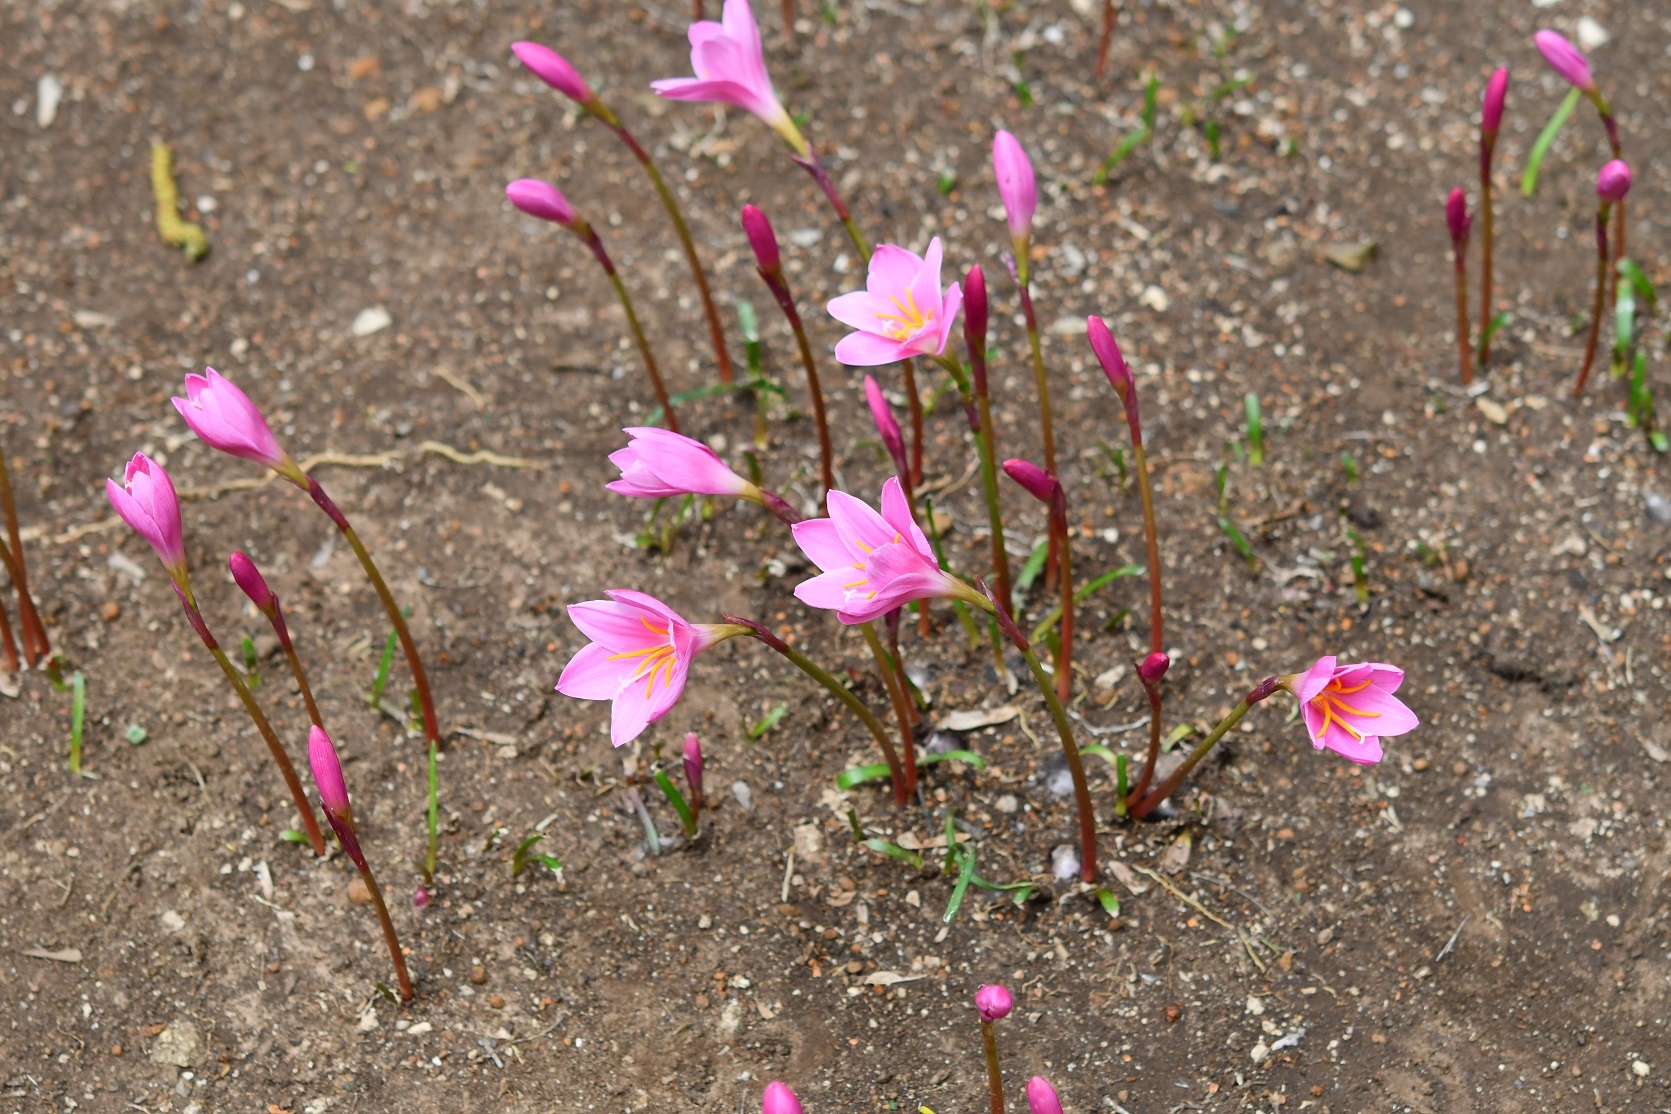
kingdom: Plantae
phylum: Tracheophyta
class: Liliopsida
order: Asparagales
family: Amaryllidaceae
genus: Zephyranthes
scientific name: Zephyranthes carinata
